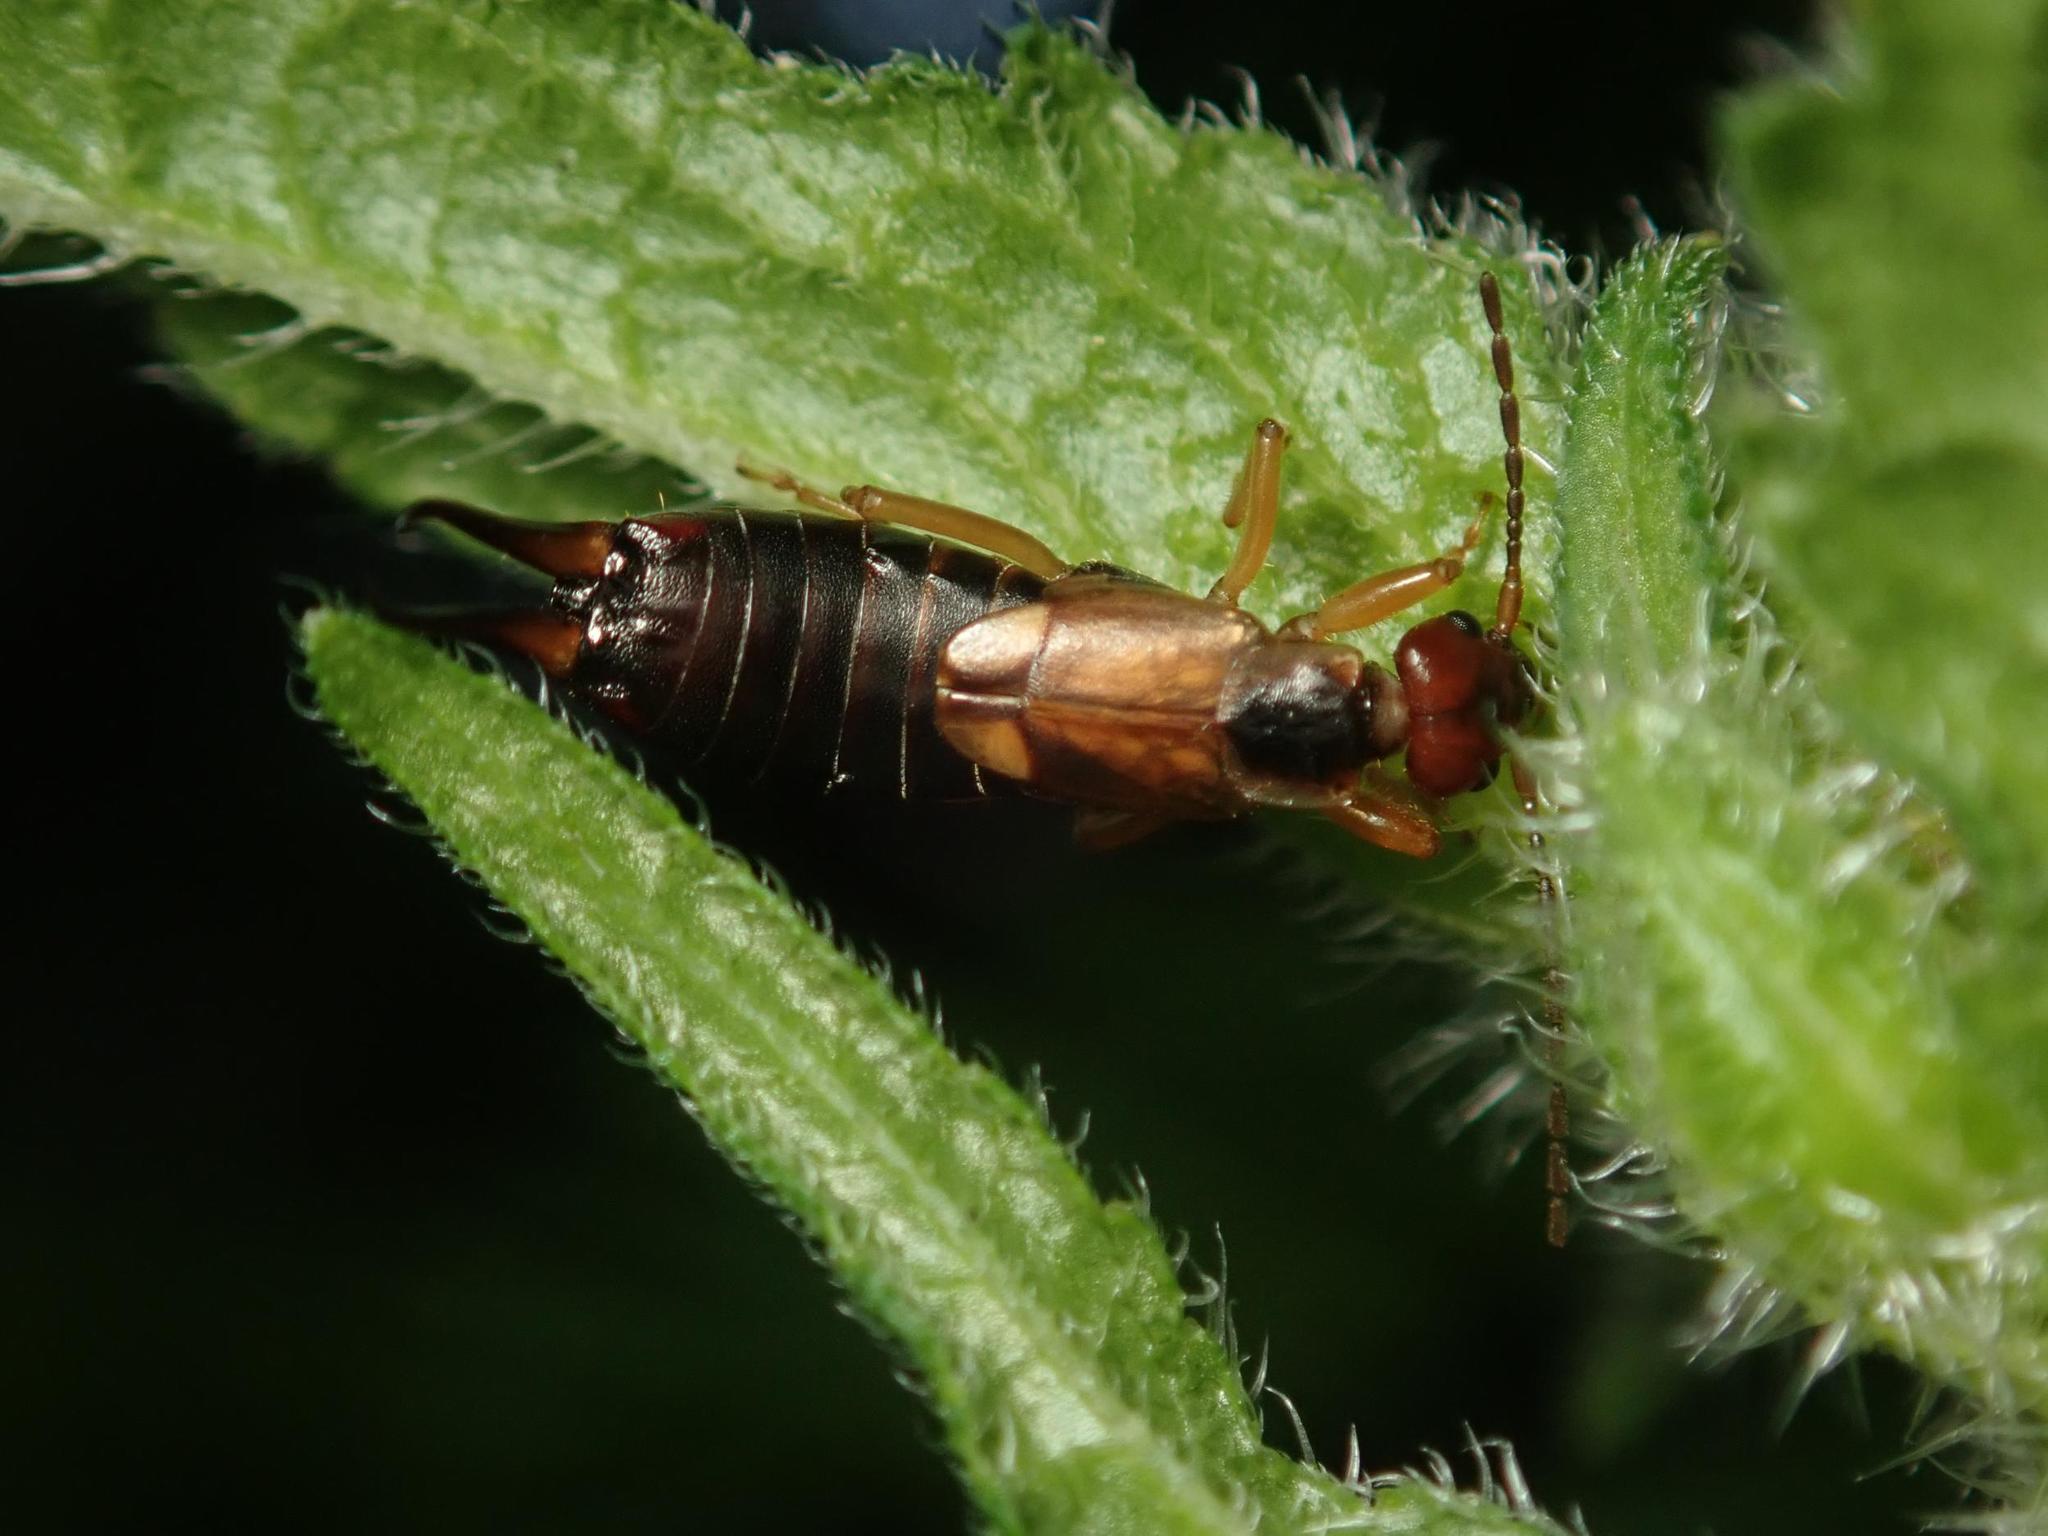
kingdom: Animalia
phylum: Arthropoda
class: Insecta
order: Dermaptera
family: Forficulidae
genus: Forficula
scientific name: Forficula
